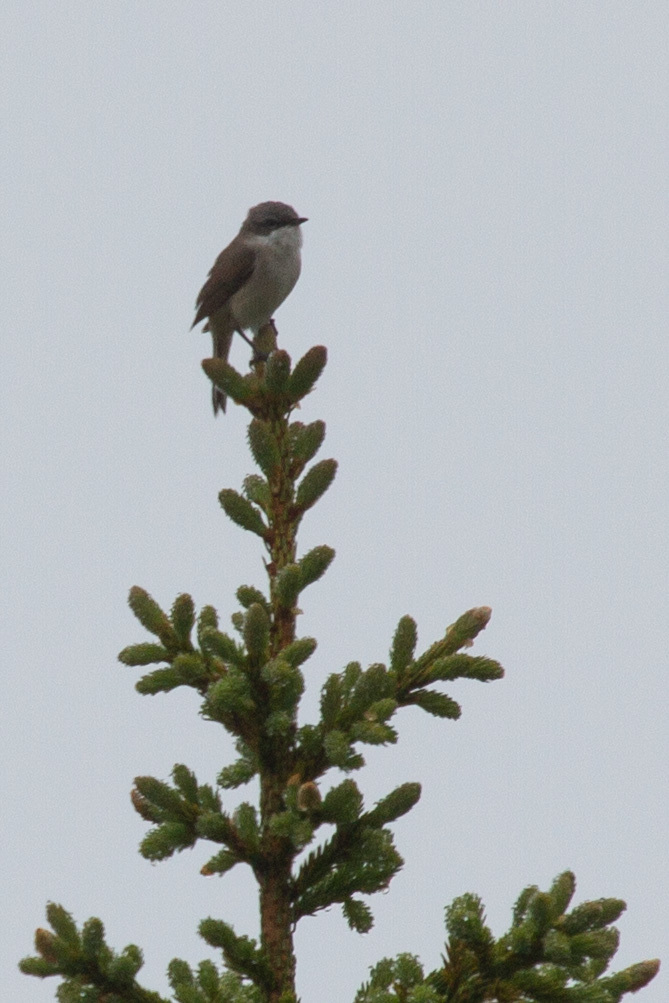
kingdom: Animalia
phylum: Chordata
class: Aves
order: Passeriformes
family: Sylviidae
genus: Sylvia
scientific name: Sylvia curruca
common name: Lesser whitethroat
